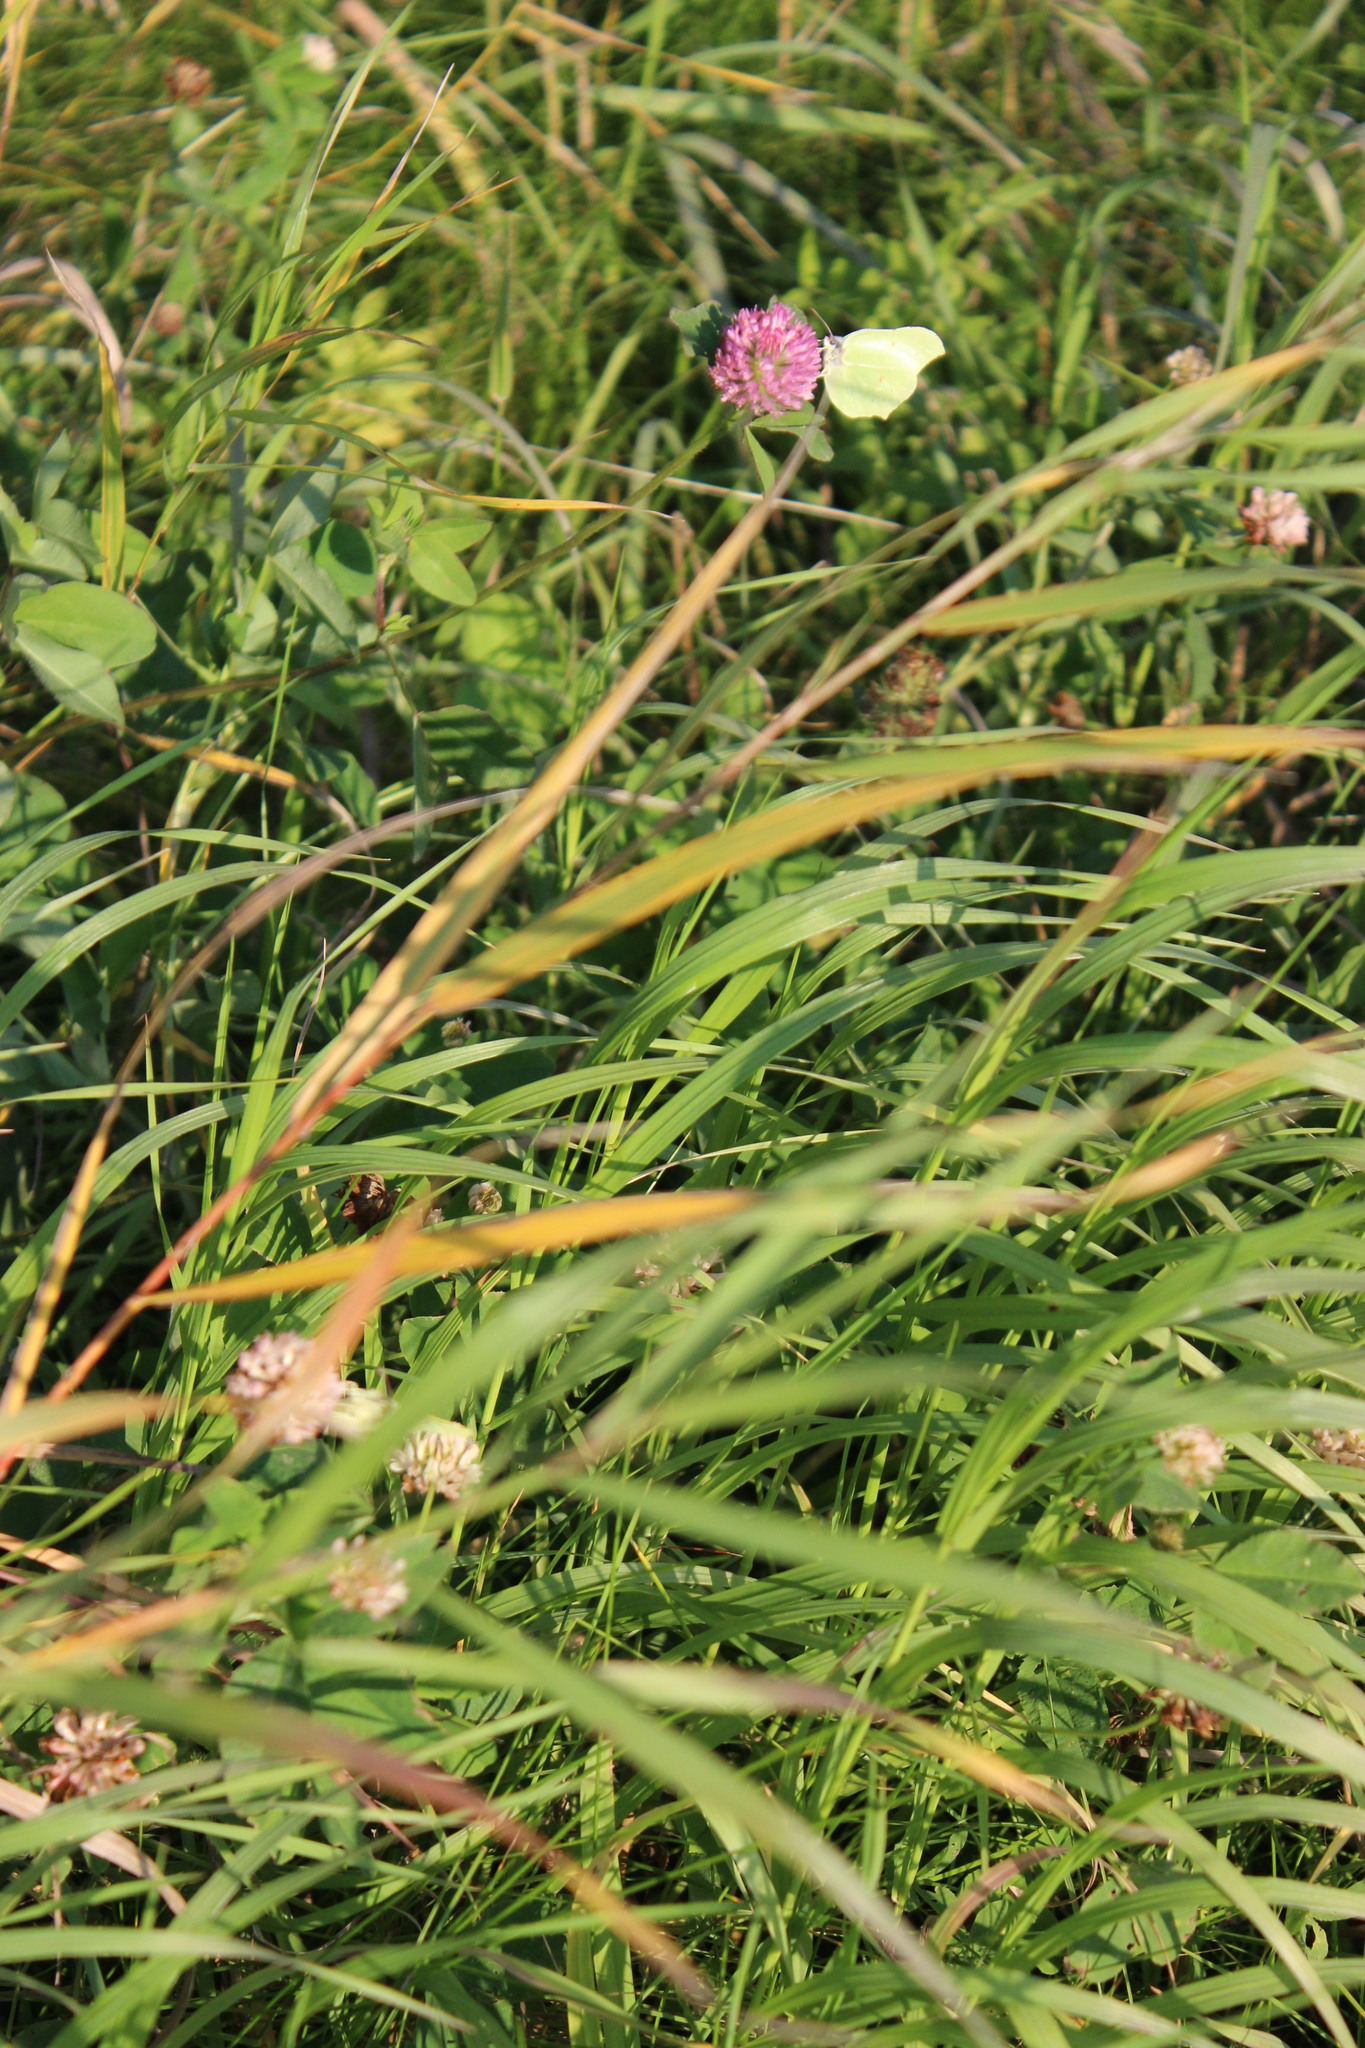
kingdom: Animalia
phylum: Arthropoda
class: Insecta
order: Lepidoptera
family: Pieridae
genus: Gonepteryx
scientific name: Gonepteryx rhamni
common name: Brimstone
